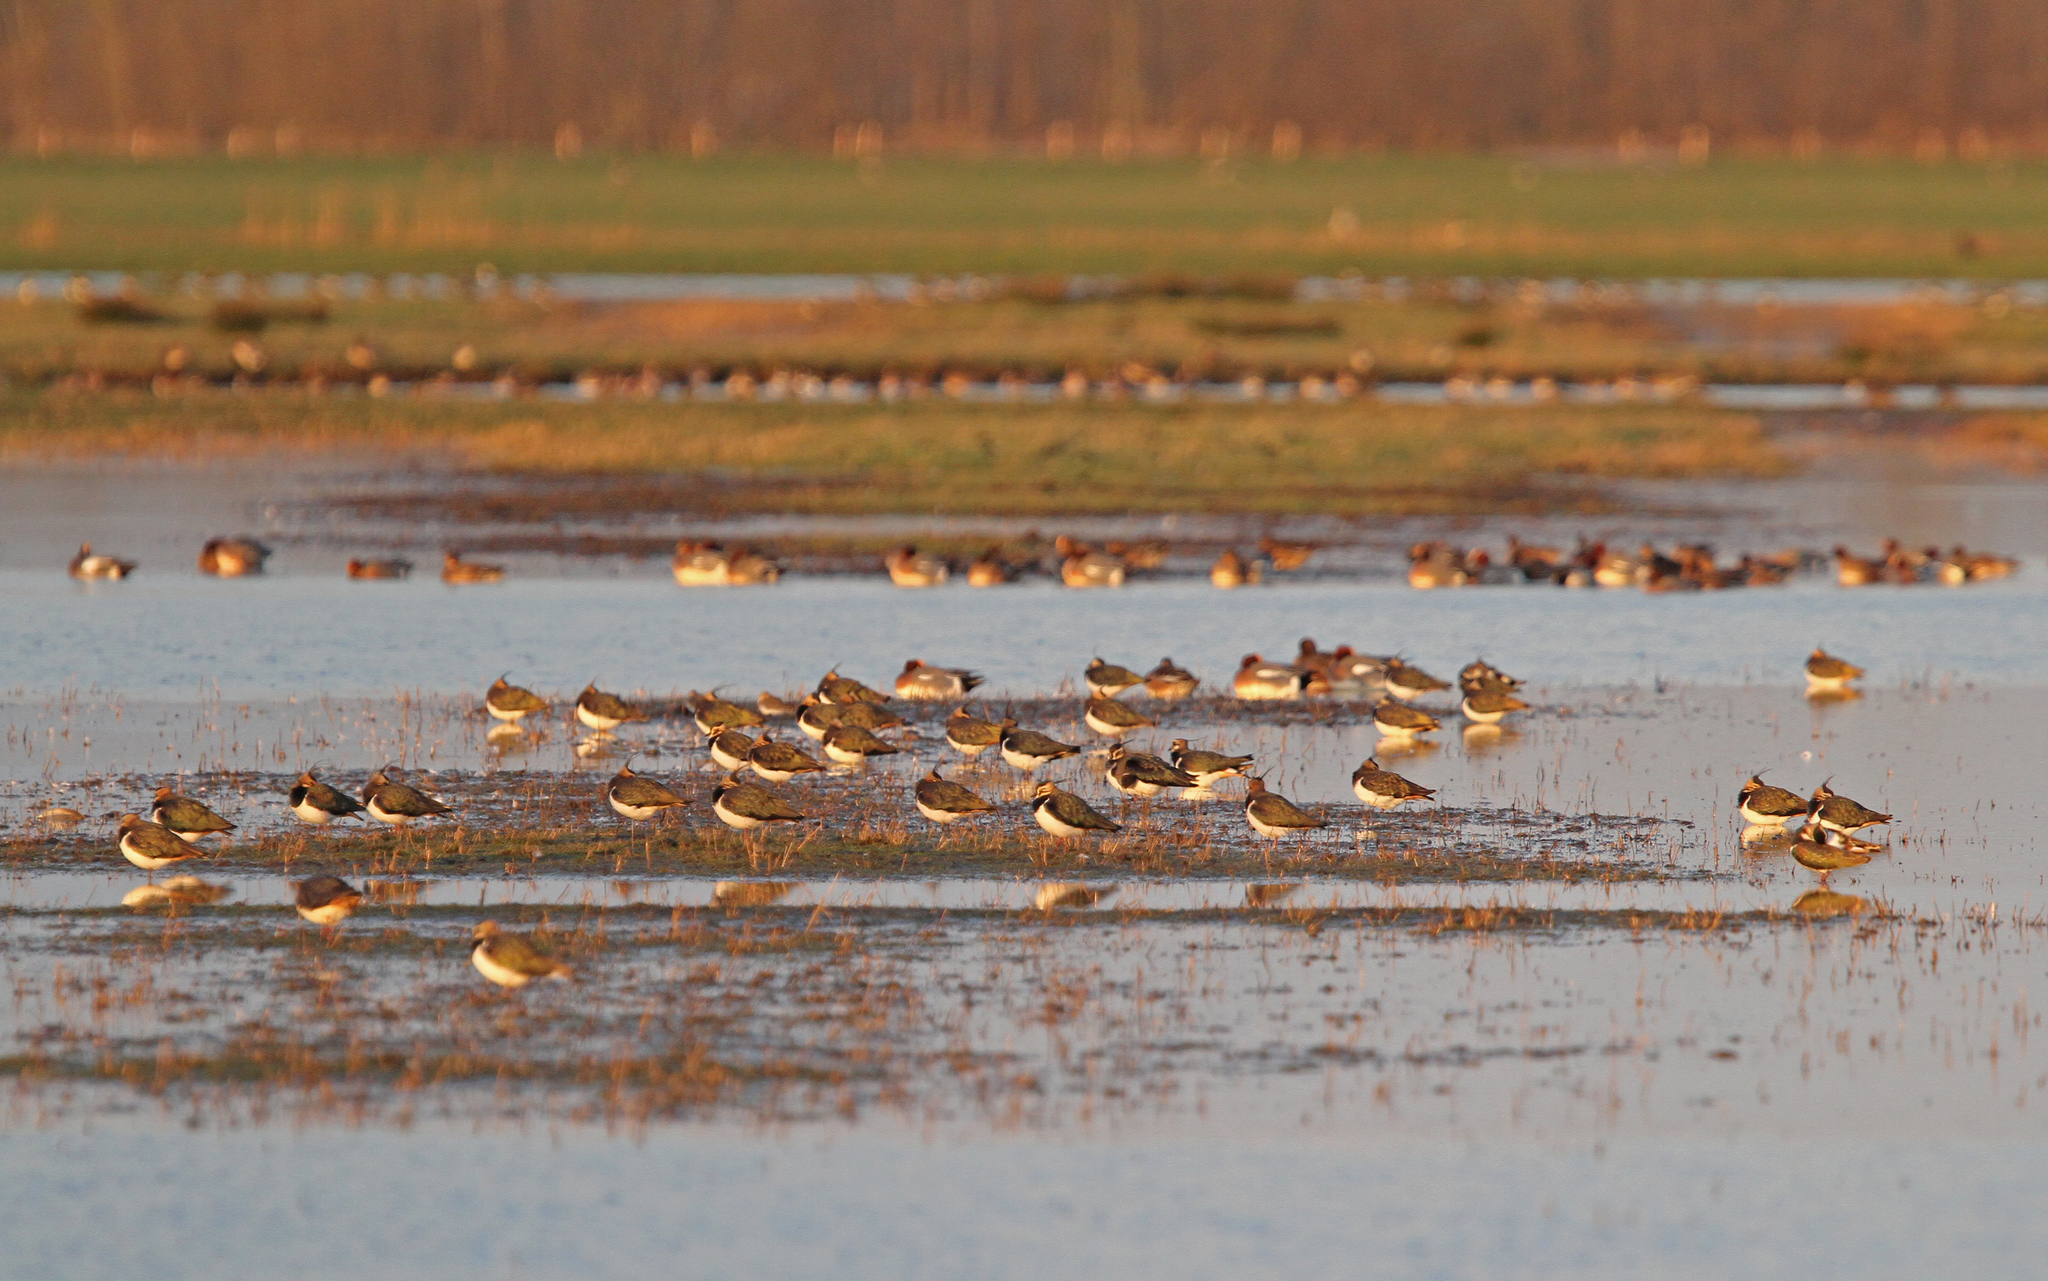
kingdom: Animalia
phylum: Chordata
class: Aves
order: Charadriiformes
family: Charadriidae
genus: Vanellus
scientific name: Vanellus vanellus
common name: Northern lapwing
